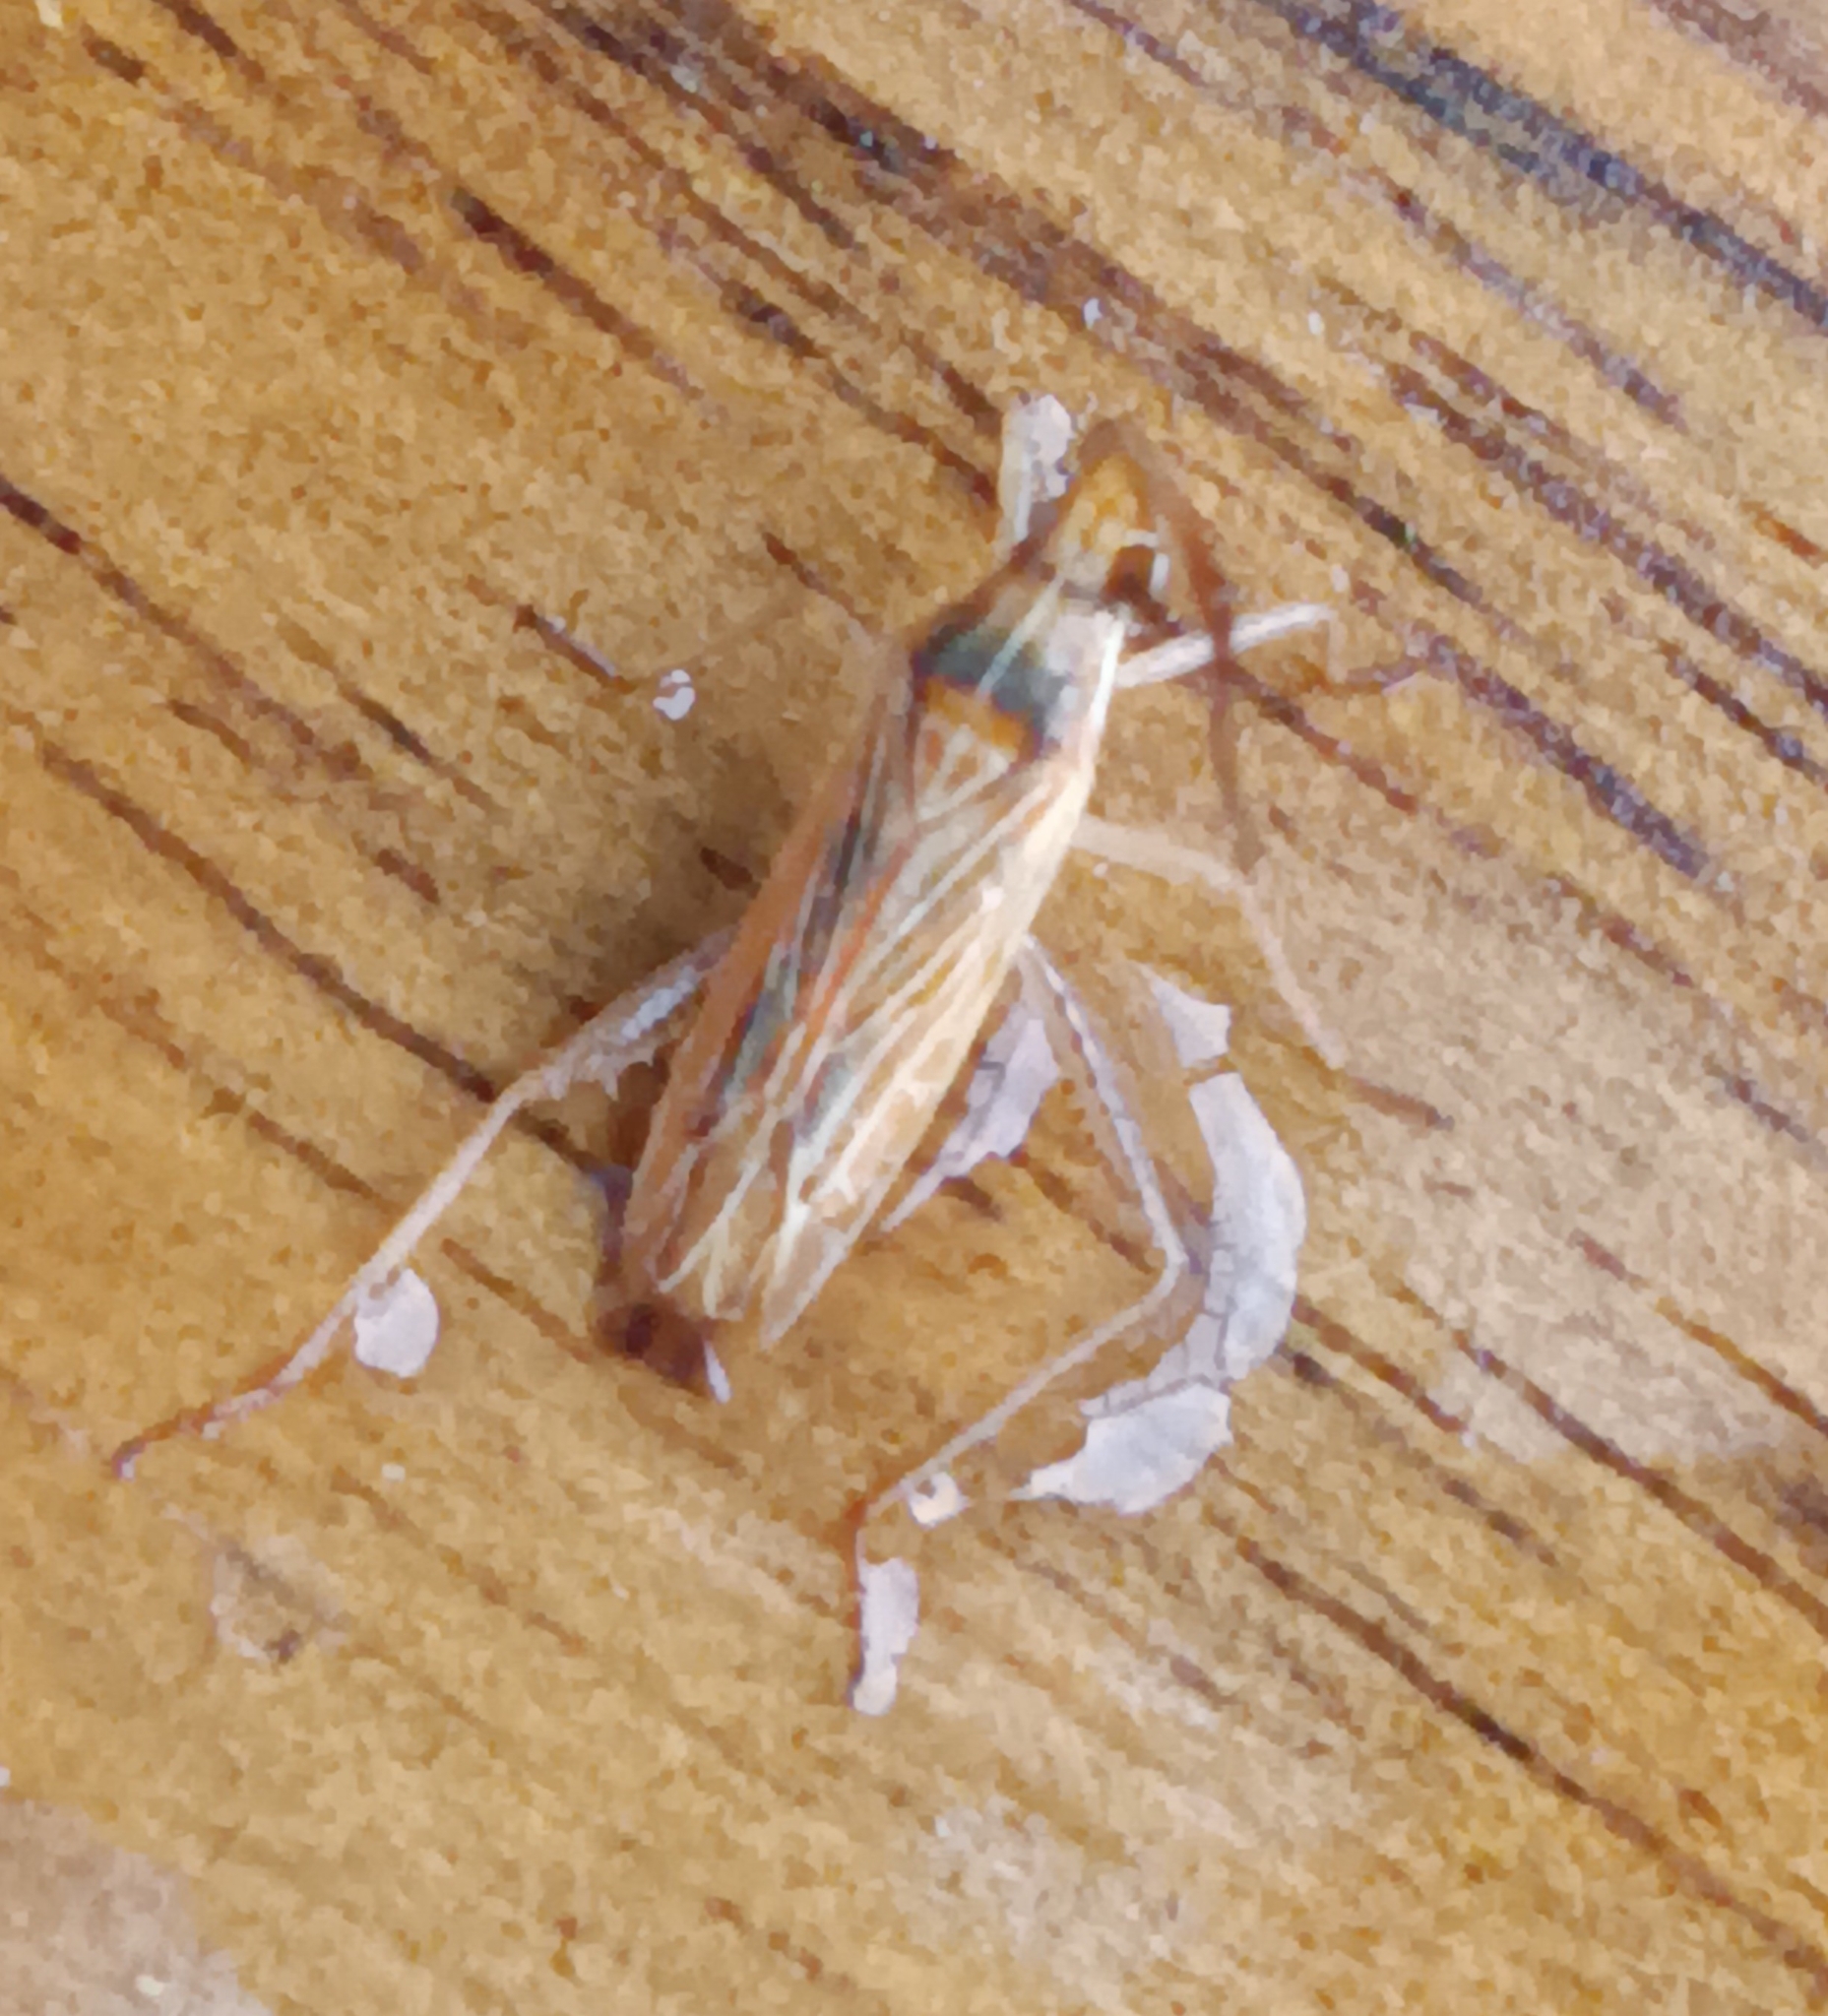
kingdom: Animalia
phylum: Arthropoda
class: Insecta
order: Hemiptera
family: Miridae
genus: Stenodema
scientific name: Stenodema trispinosa
